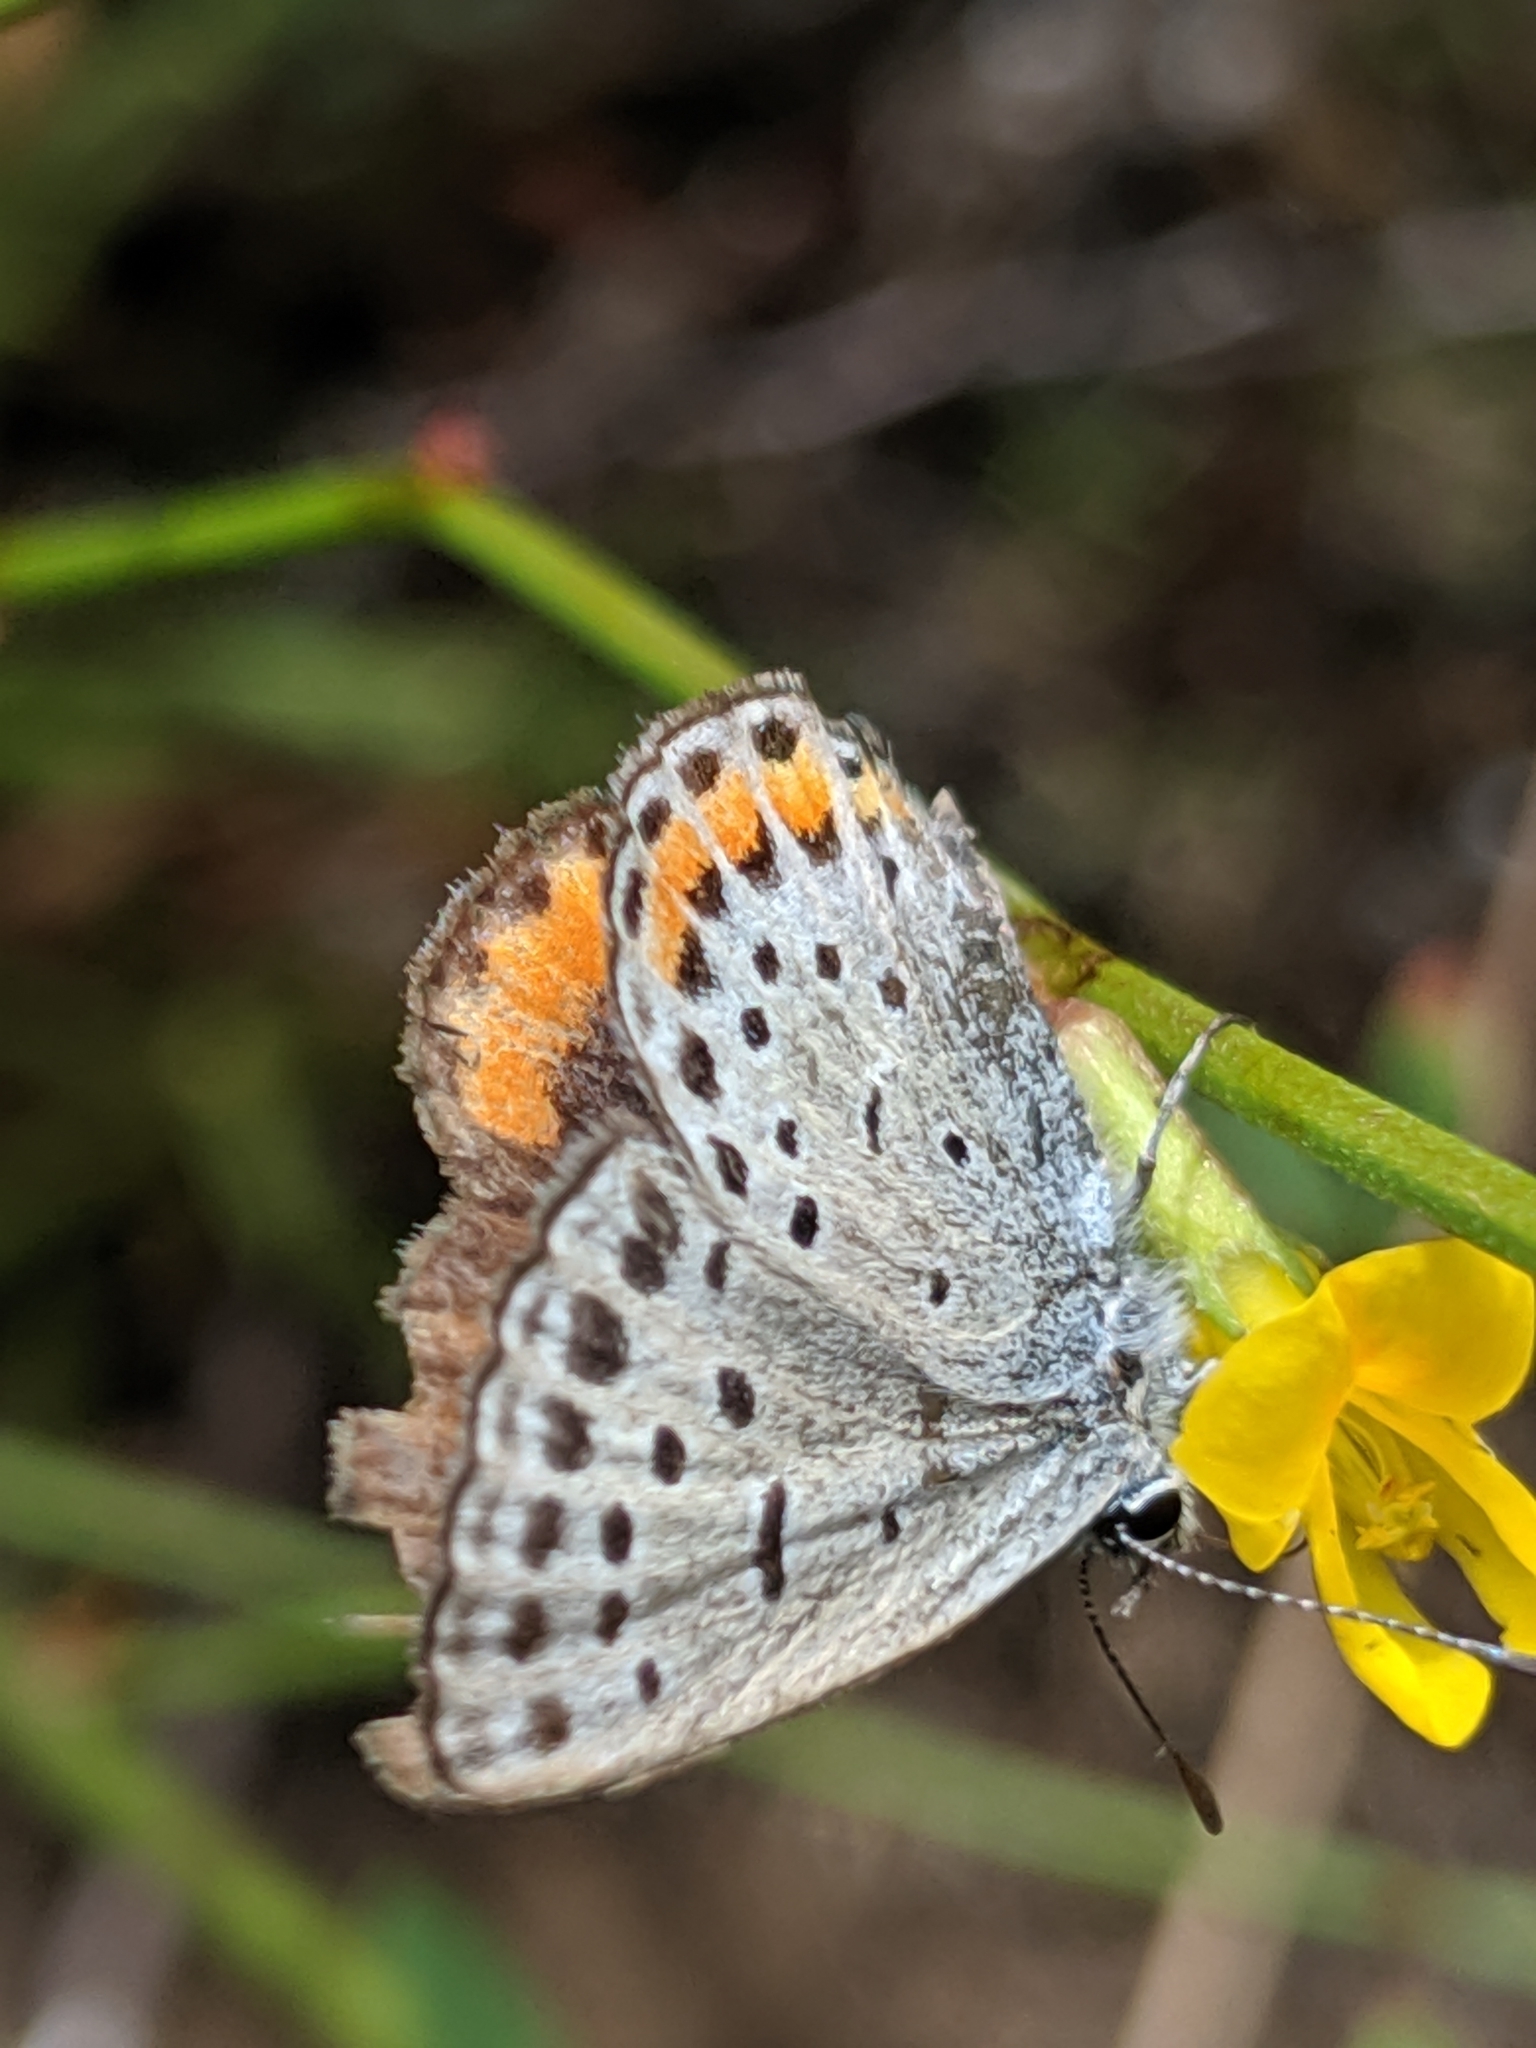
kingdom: Animalia
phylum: Arthropoda
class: Insecta
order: Lepidoptera
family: Lycaenidae
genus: Icaricia
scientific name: Icaricia acmon
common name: Acmon blue
